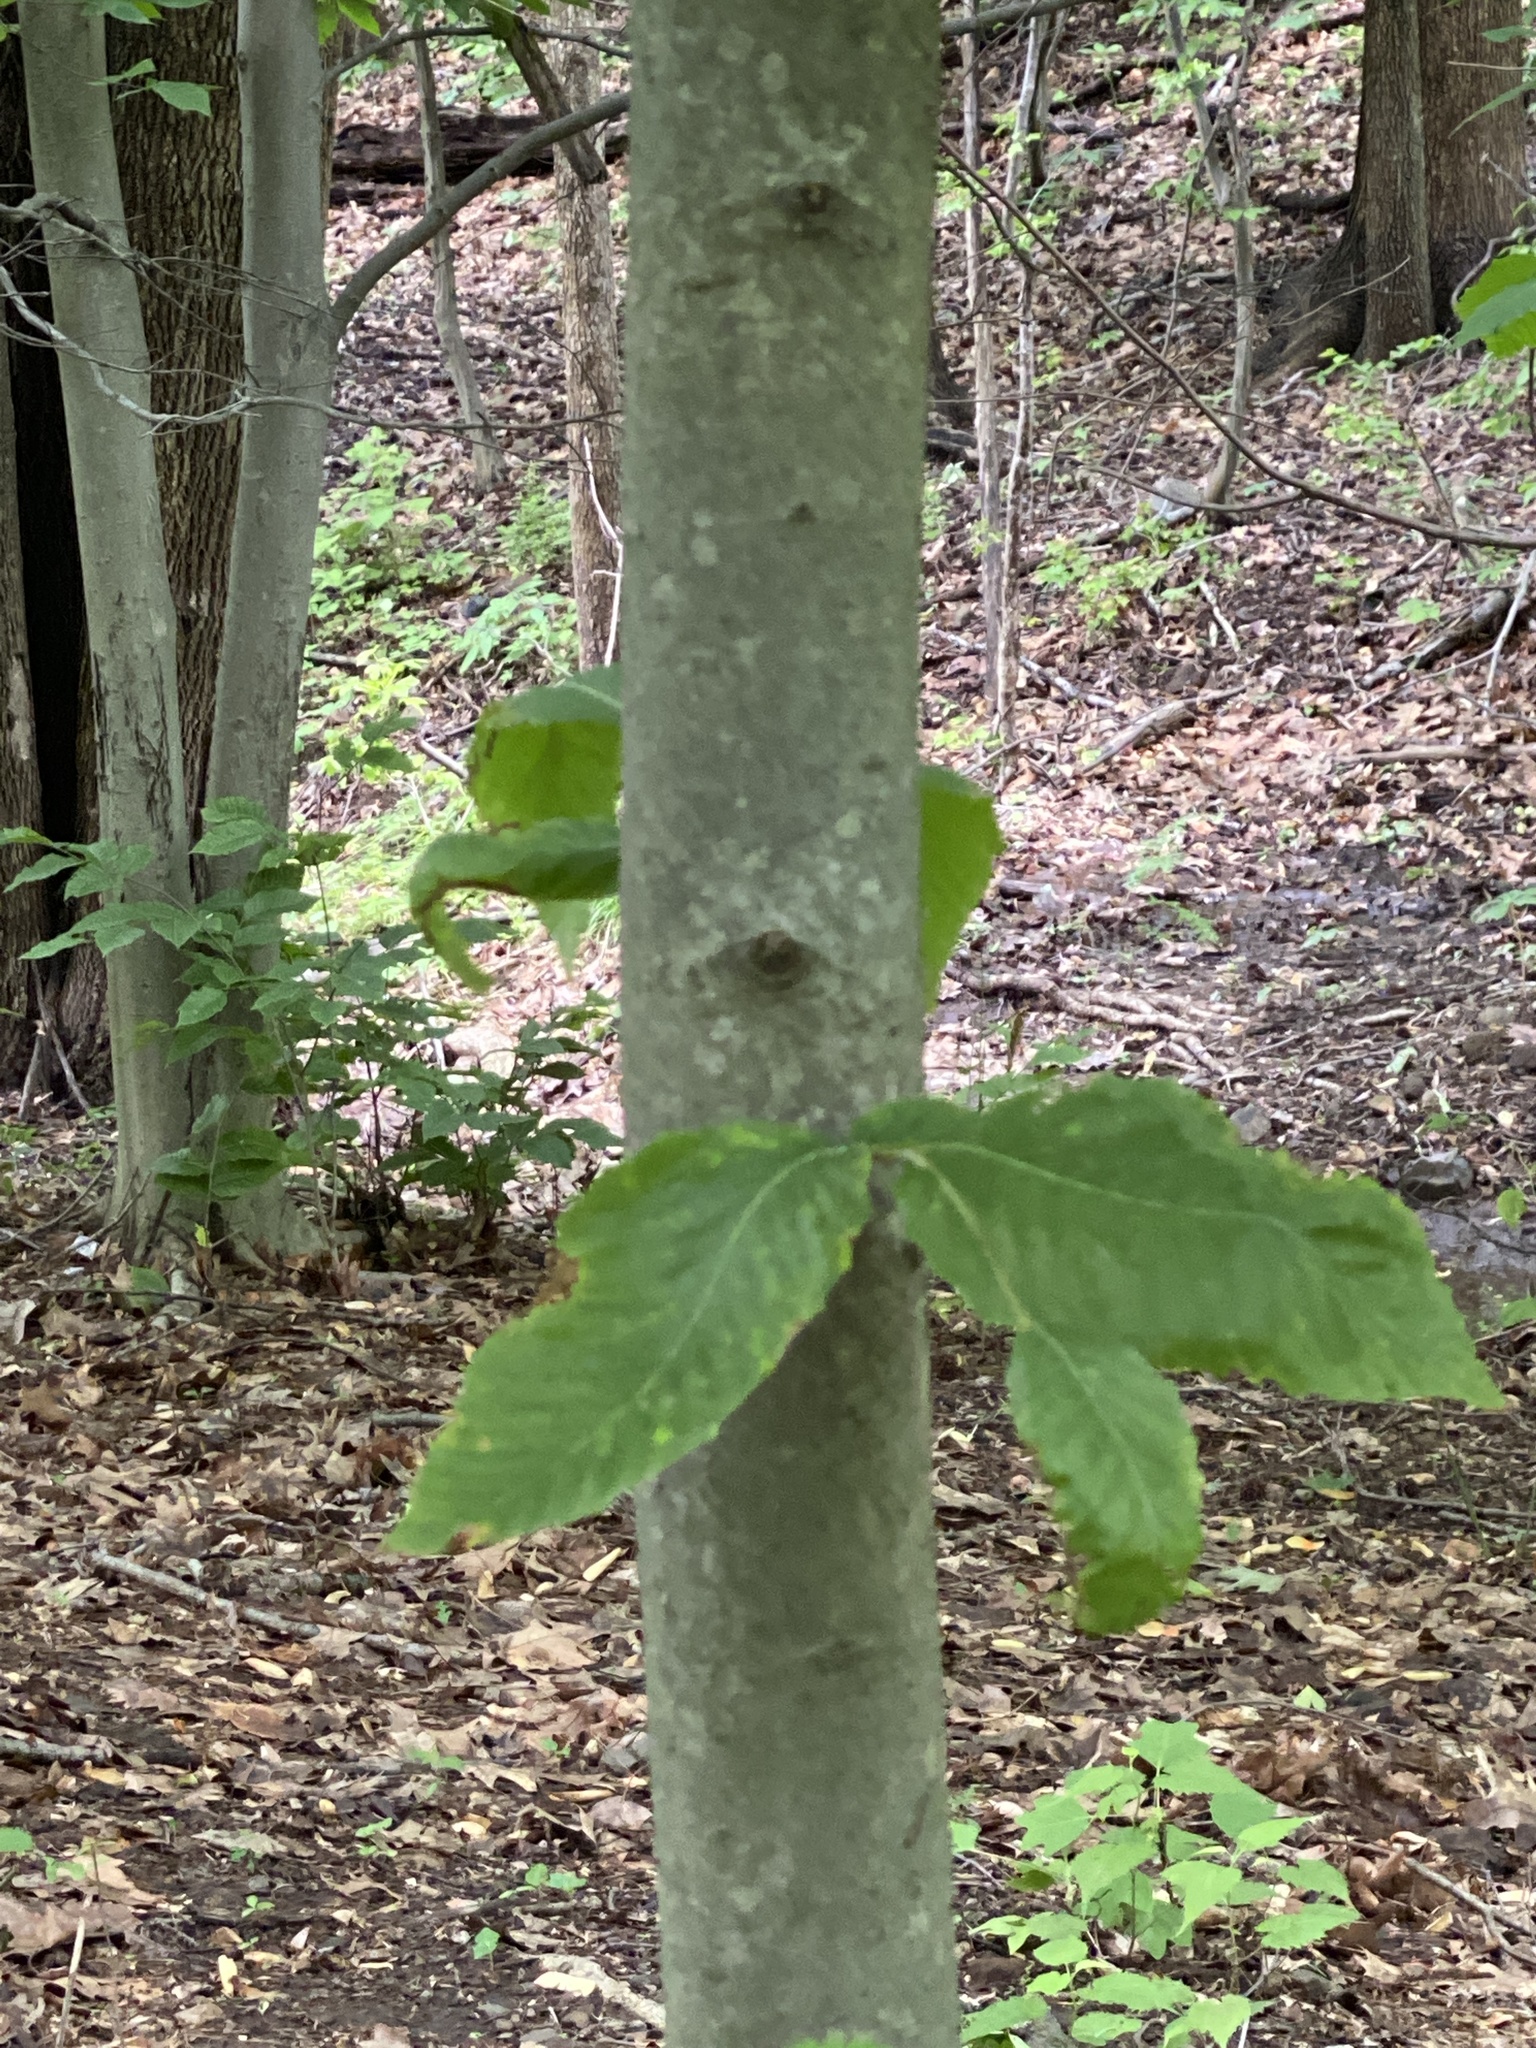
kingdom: Plantae
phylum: Tracheophyta
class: Magnoliopsida
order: Fagales
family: Fagaceae
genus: Fagus
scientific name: Fagus grandifolia
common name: American beech
